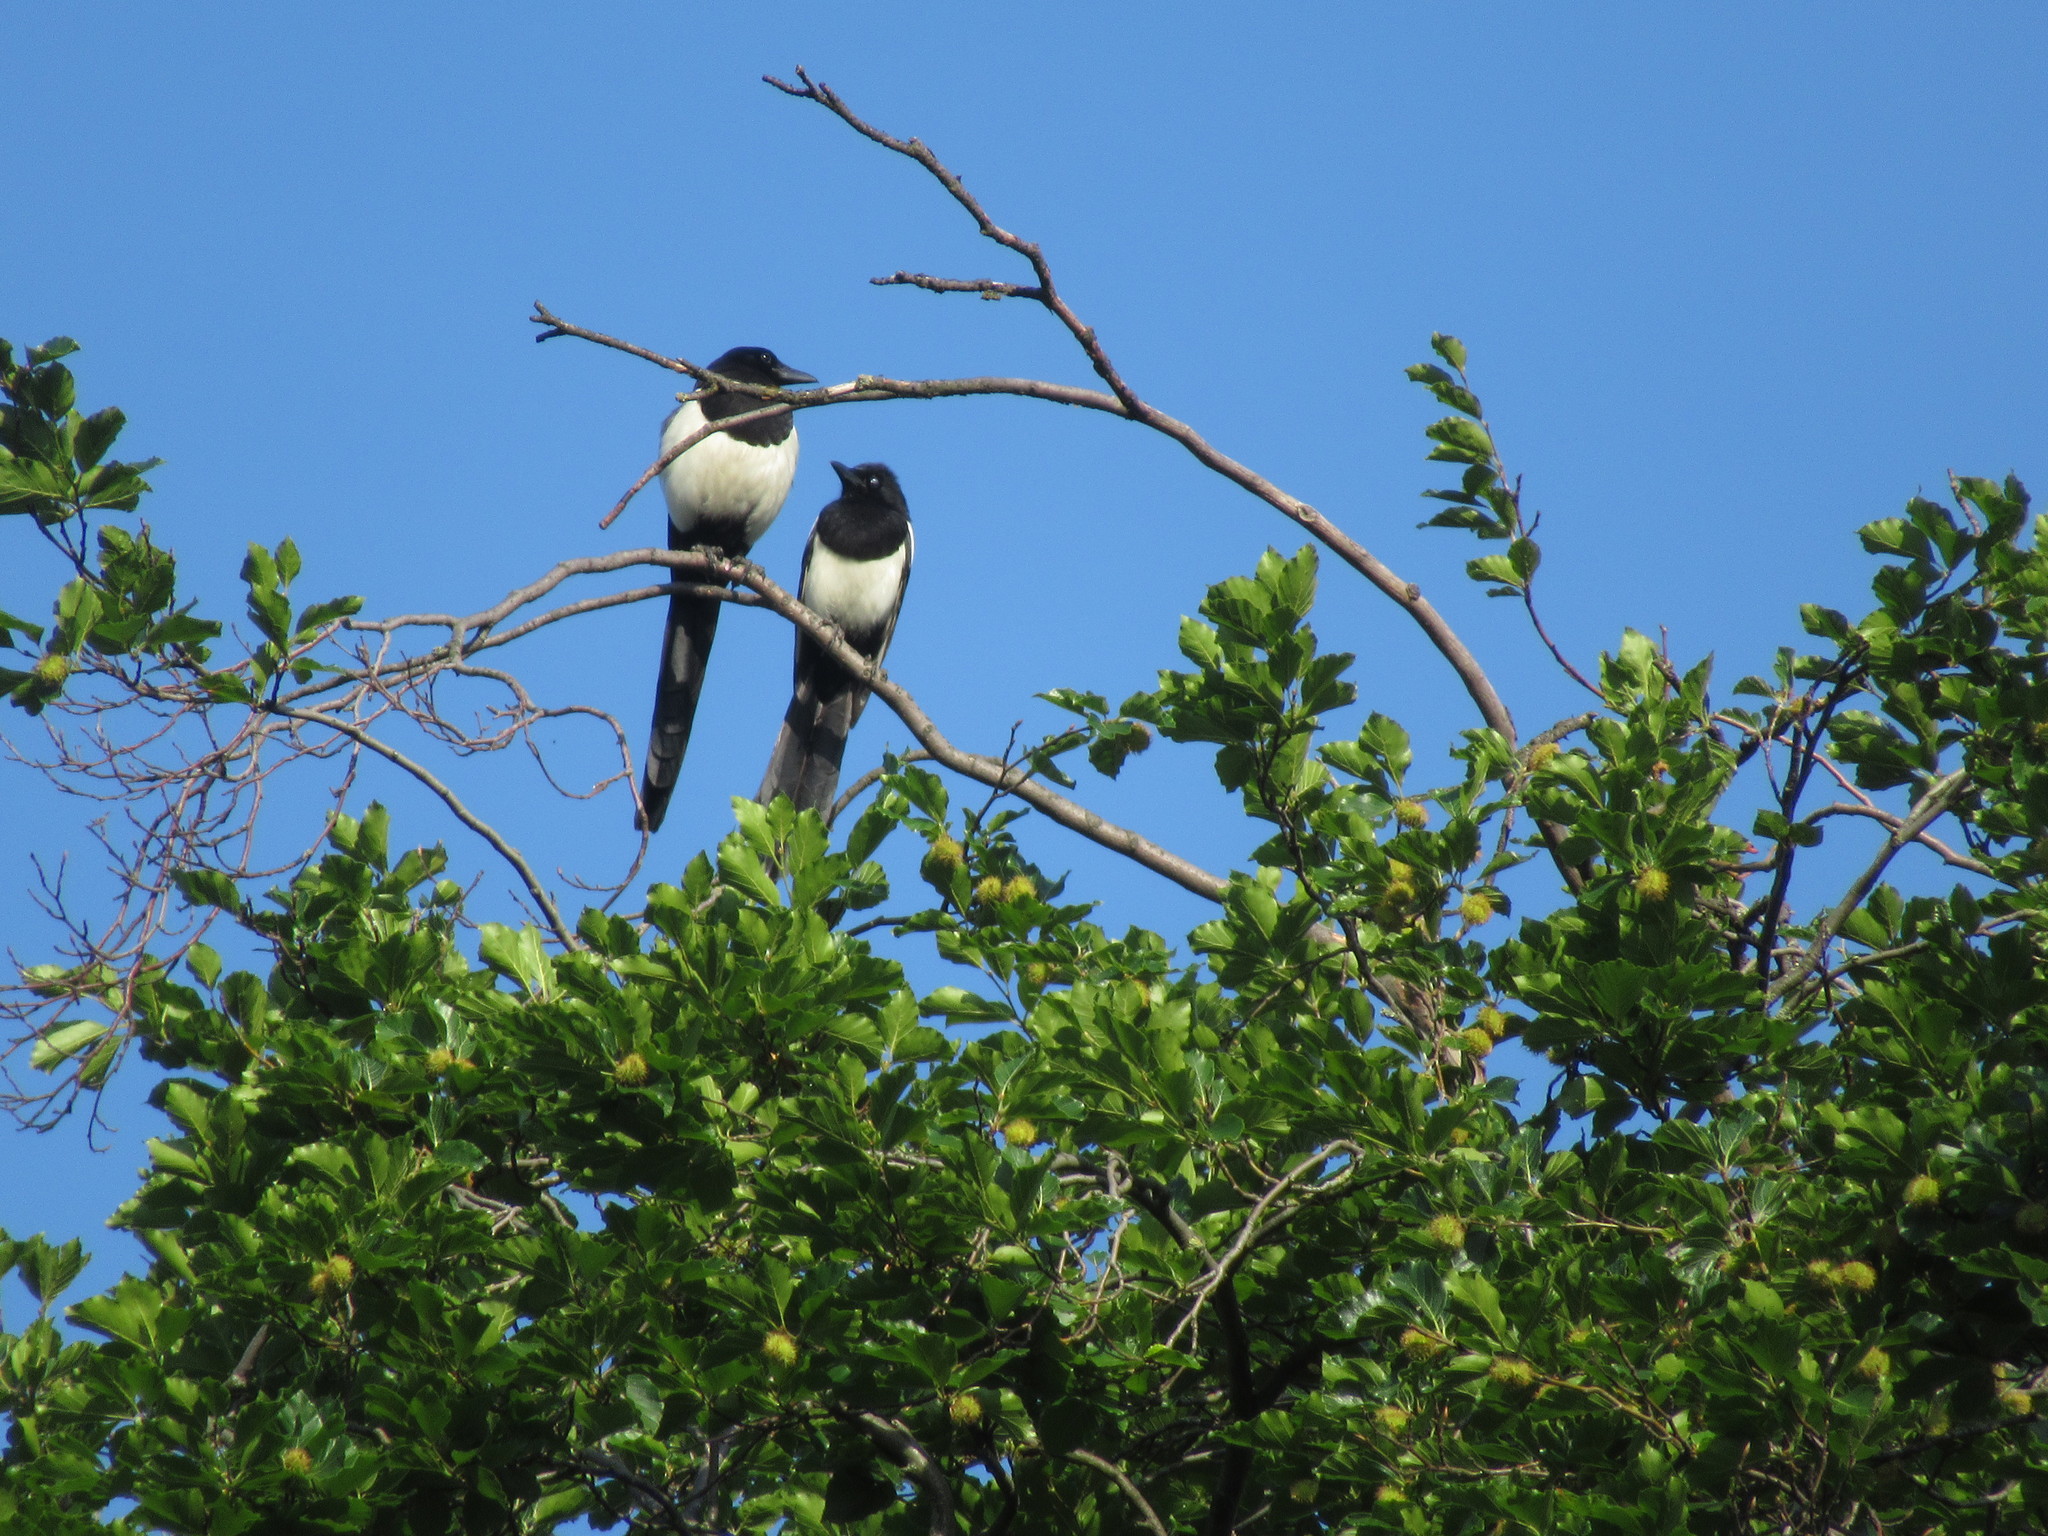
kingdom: Animalia
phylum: Chordata
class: Aves
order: Passeriformes
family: Corvidae
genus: Pica
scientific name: Pica pica
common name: Eurasian magpie
